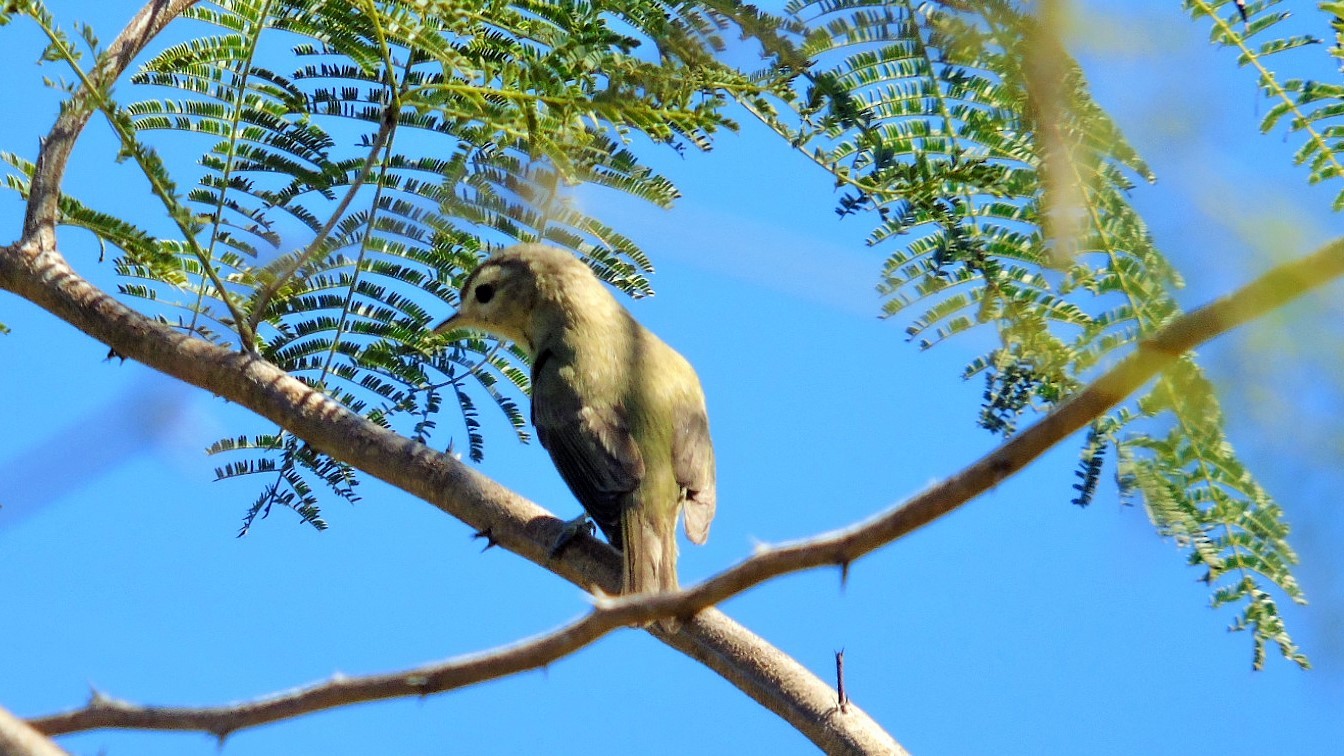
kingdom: Animalia
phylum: Chordata
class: Aves
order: Passeriformes
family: Vireonidae
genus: Vireo
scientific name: Vireo gilvus
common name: Warbling vireo
